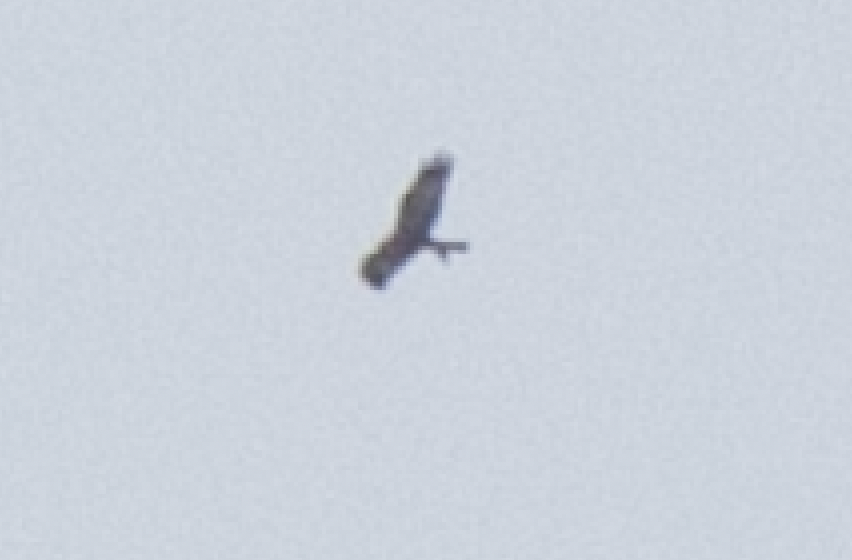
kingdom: Animalia
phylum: Chordata
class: Aves
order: Accipitriformes
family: Accipitridae
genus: Milvus
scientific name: Milvus milvus
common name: Red kite
